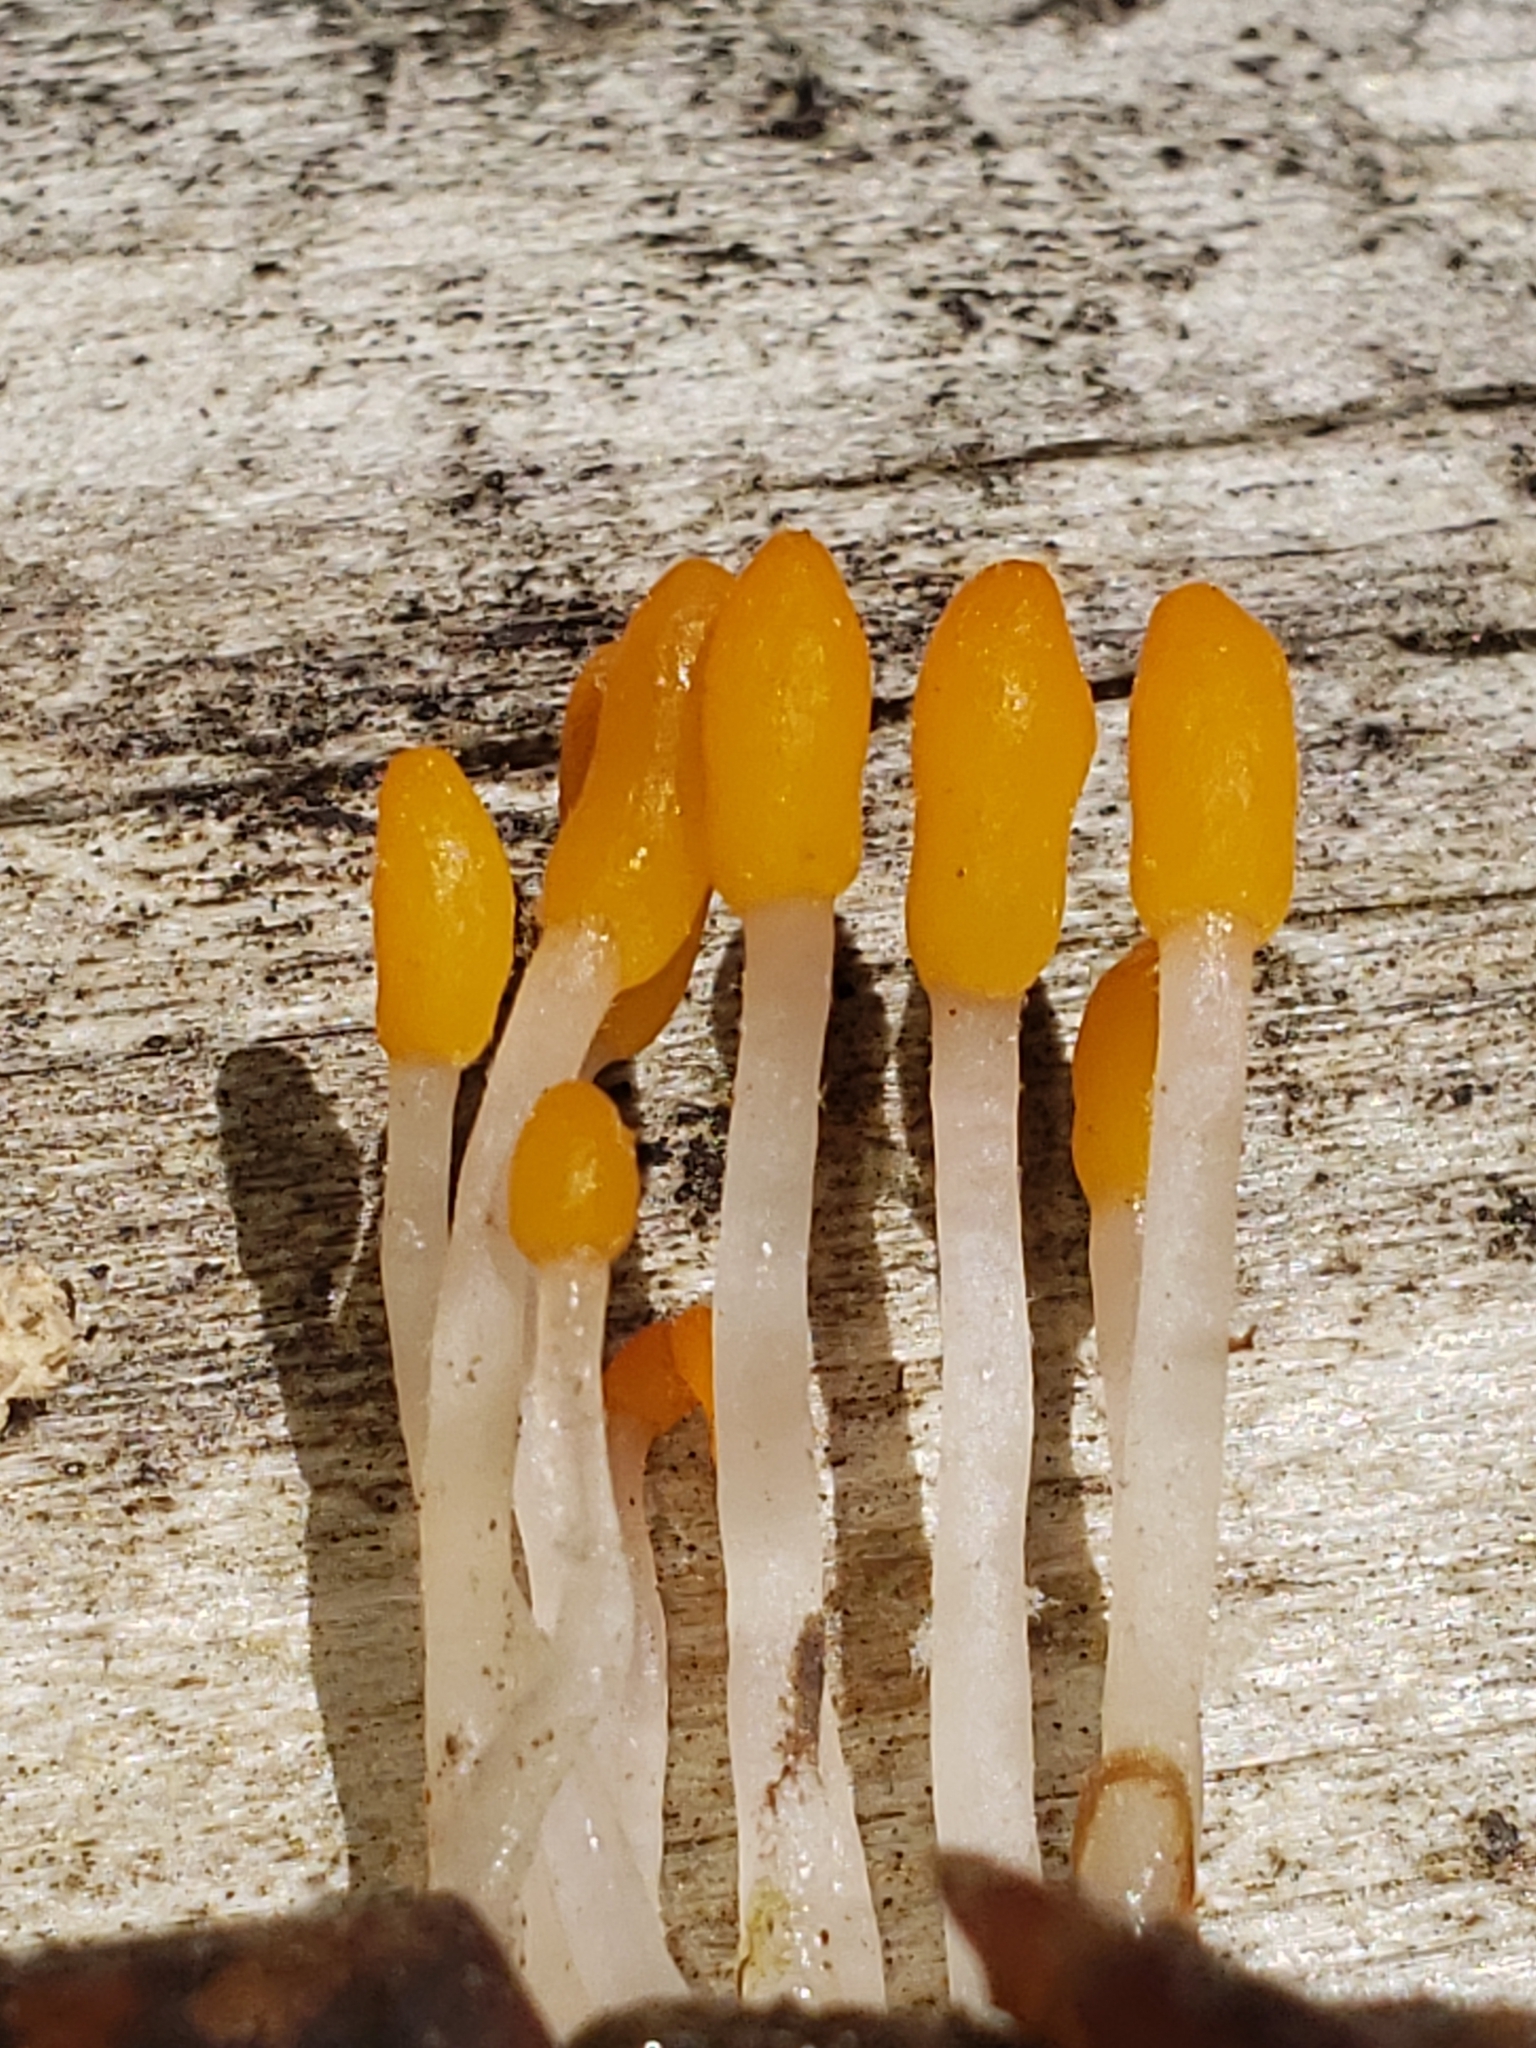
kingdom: Fungi
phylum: Ascomycota
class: Leotiomycetes
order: Helotiales
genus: Mitrula
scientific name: Mitrula lunulatospora
